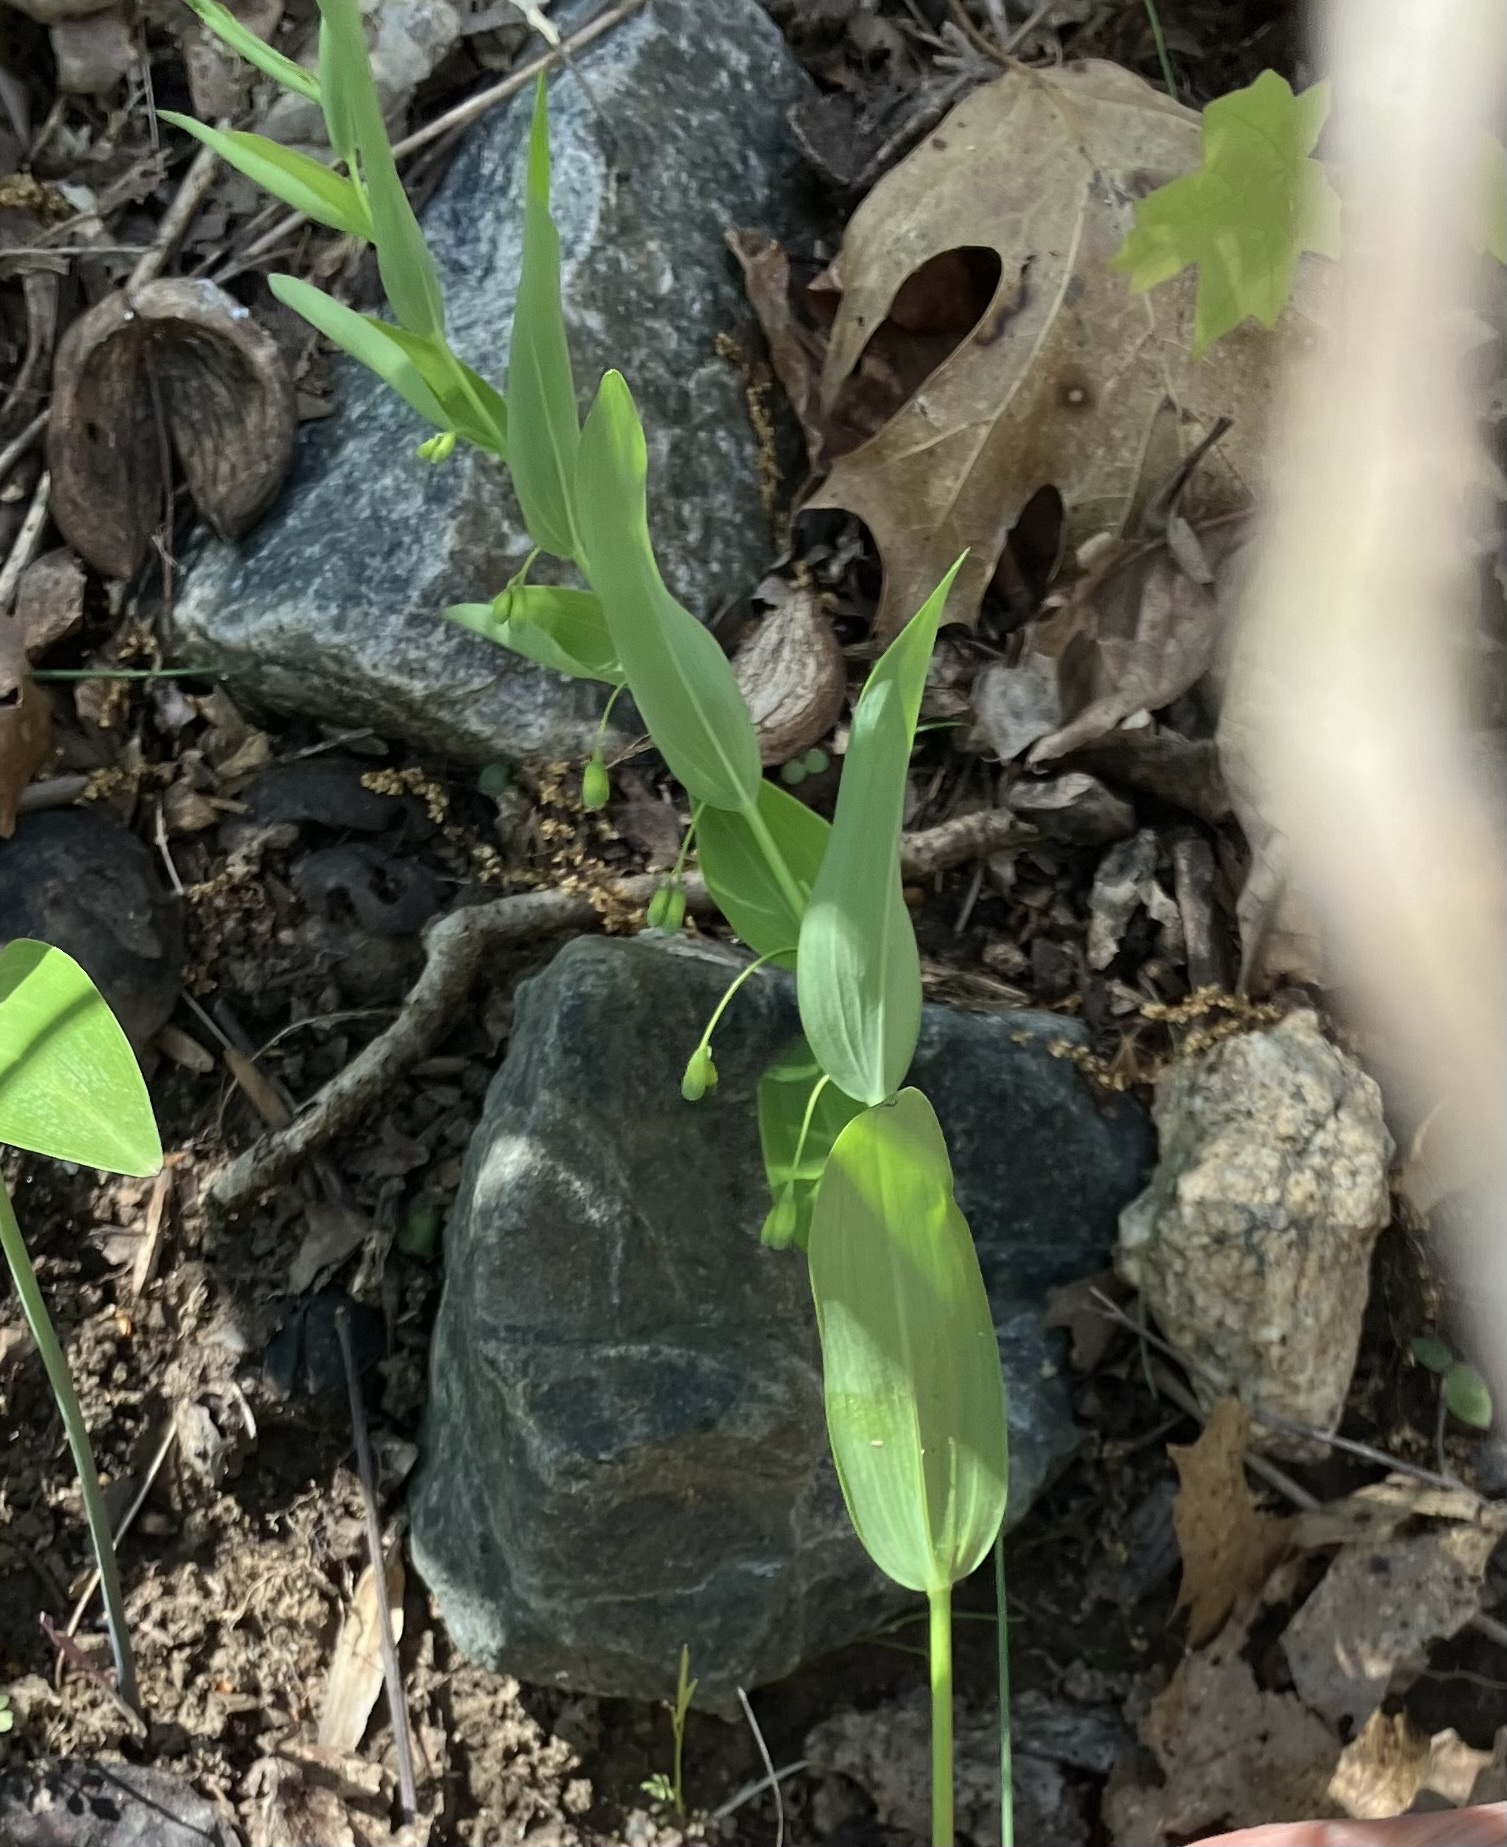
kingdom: Plantae
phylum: Tracheophyta
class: Liliopsida
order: Asparagales
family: Asparagaceae
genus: Polygonatum
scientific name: Polygonatum biflorum
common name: American solomon's-seal
